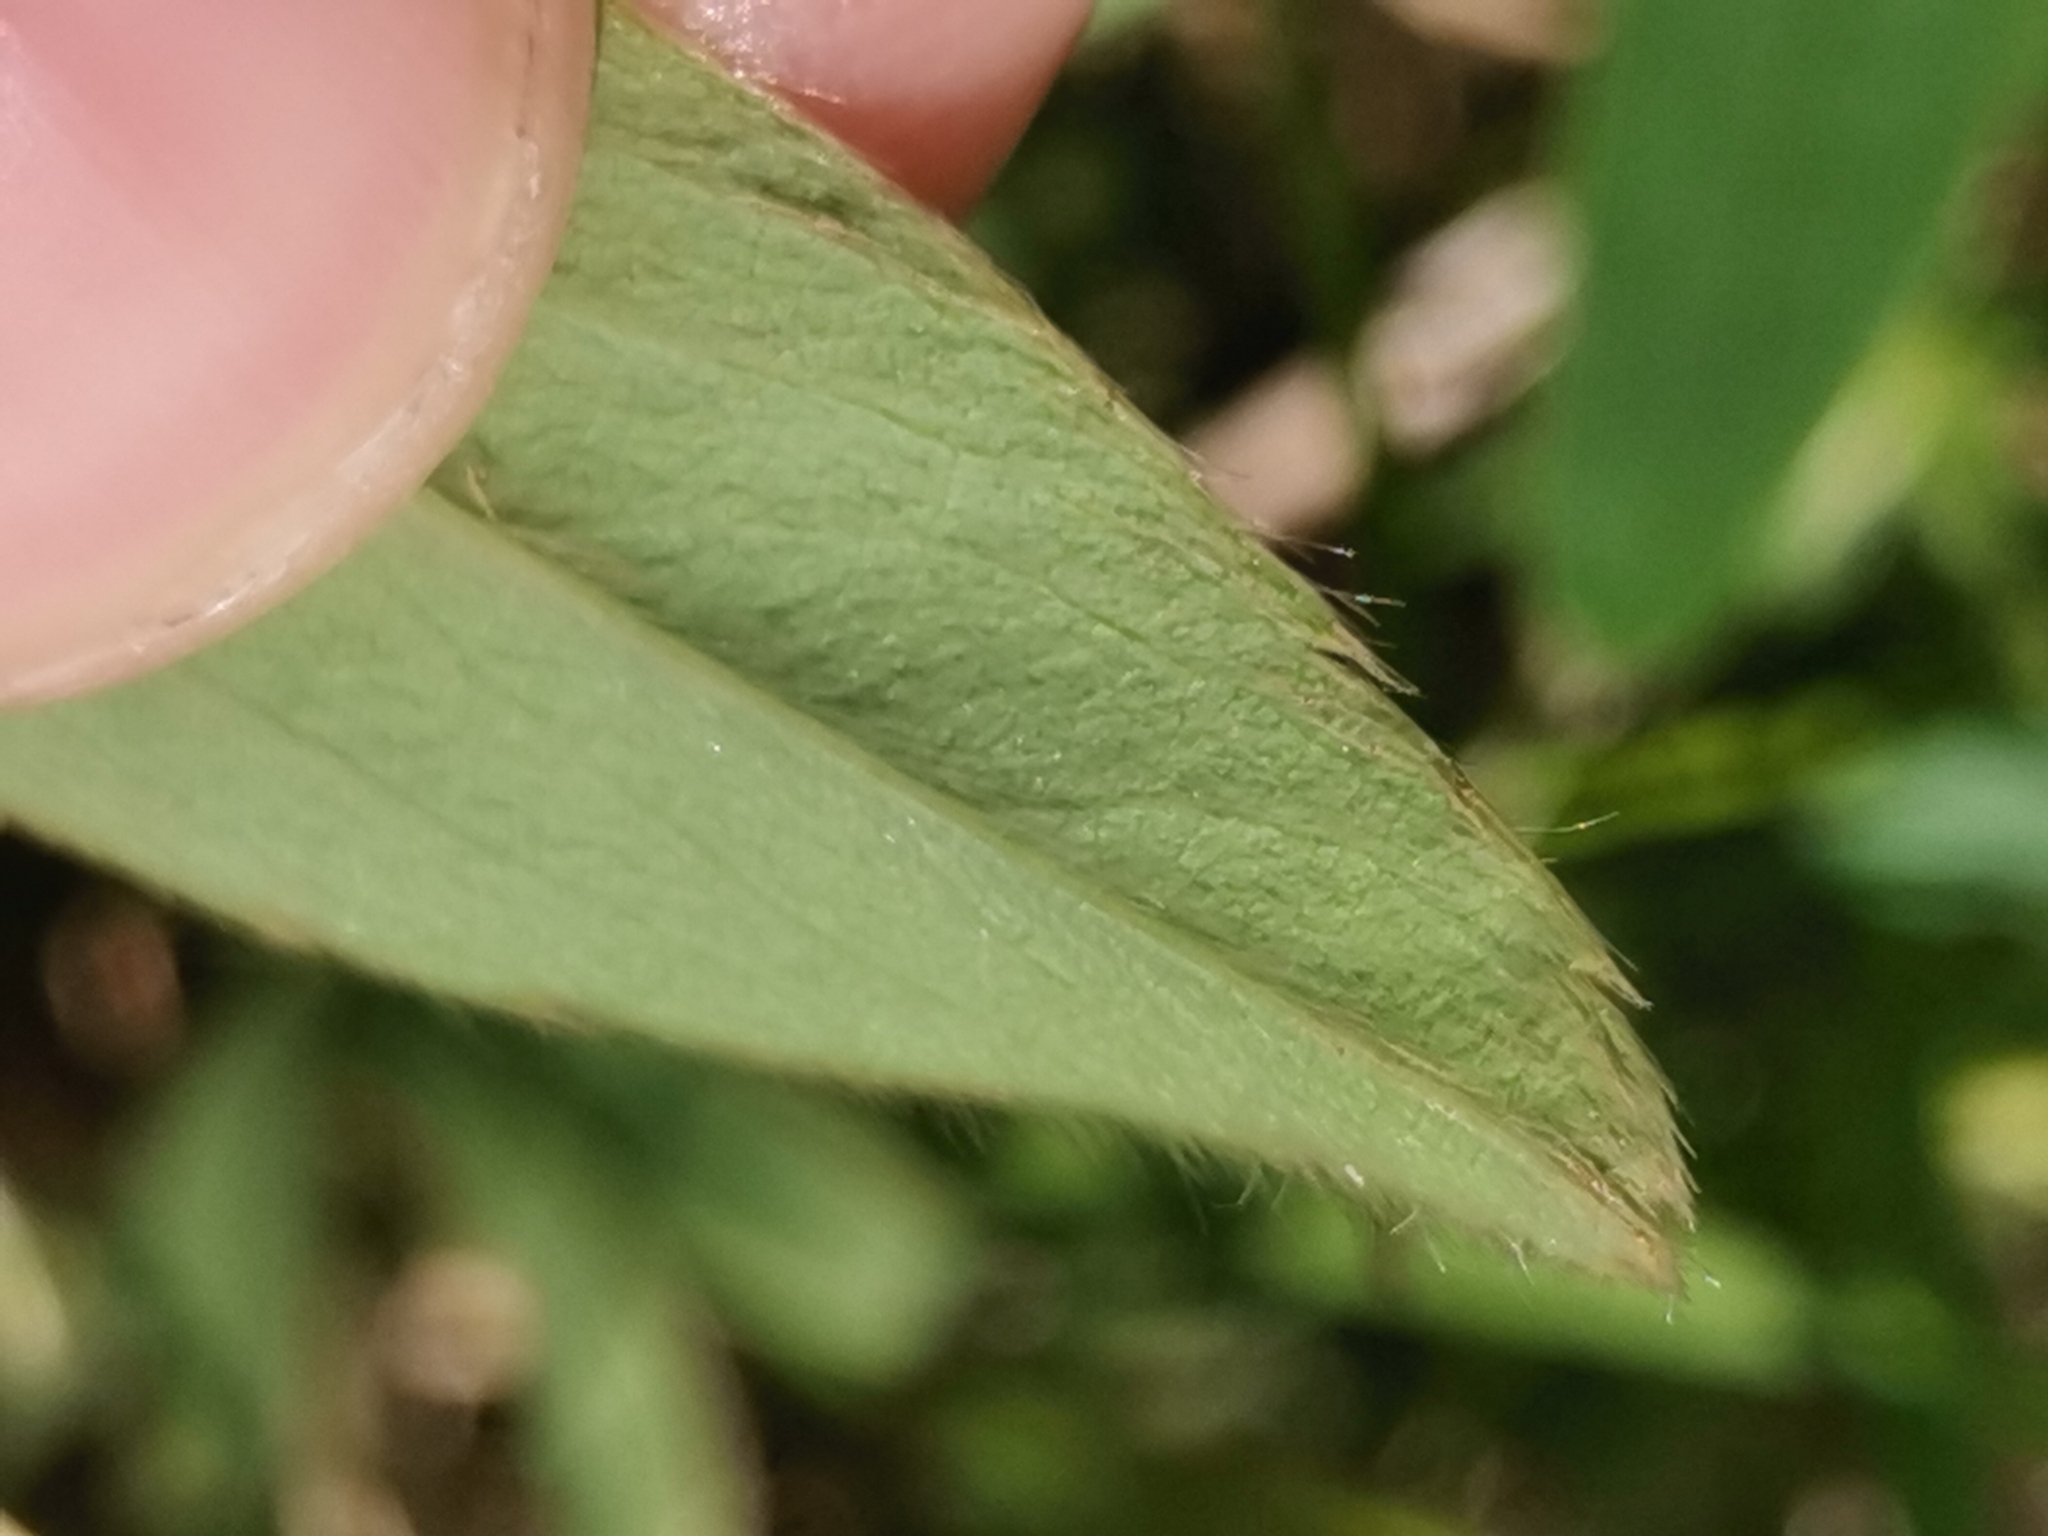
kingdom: Plantae
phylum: Tracheophyta
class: Magnoliopsida
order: Rosales
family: Rosaceae
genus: Potentilla
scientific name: Potentilla alba
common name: White cinquefoil
